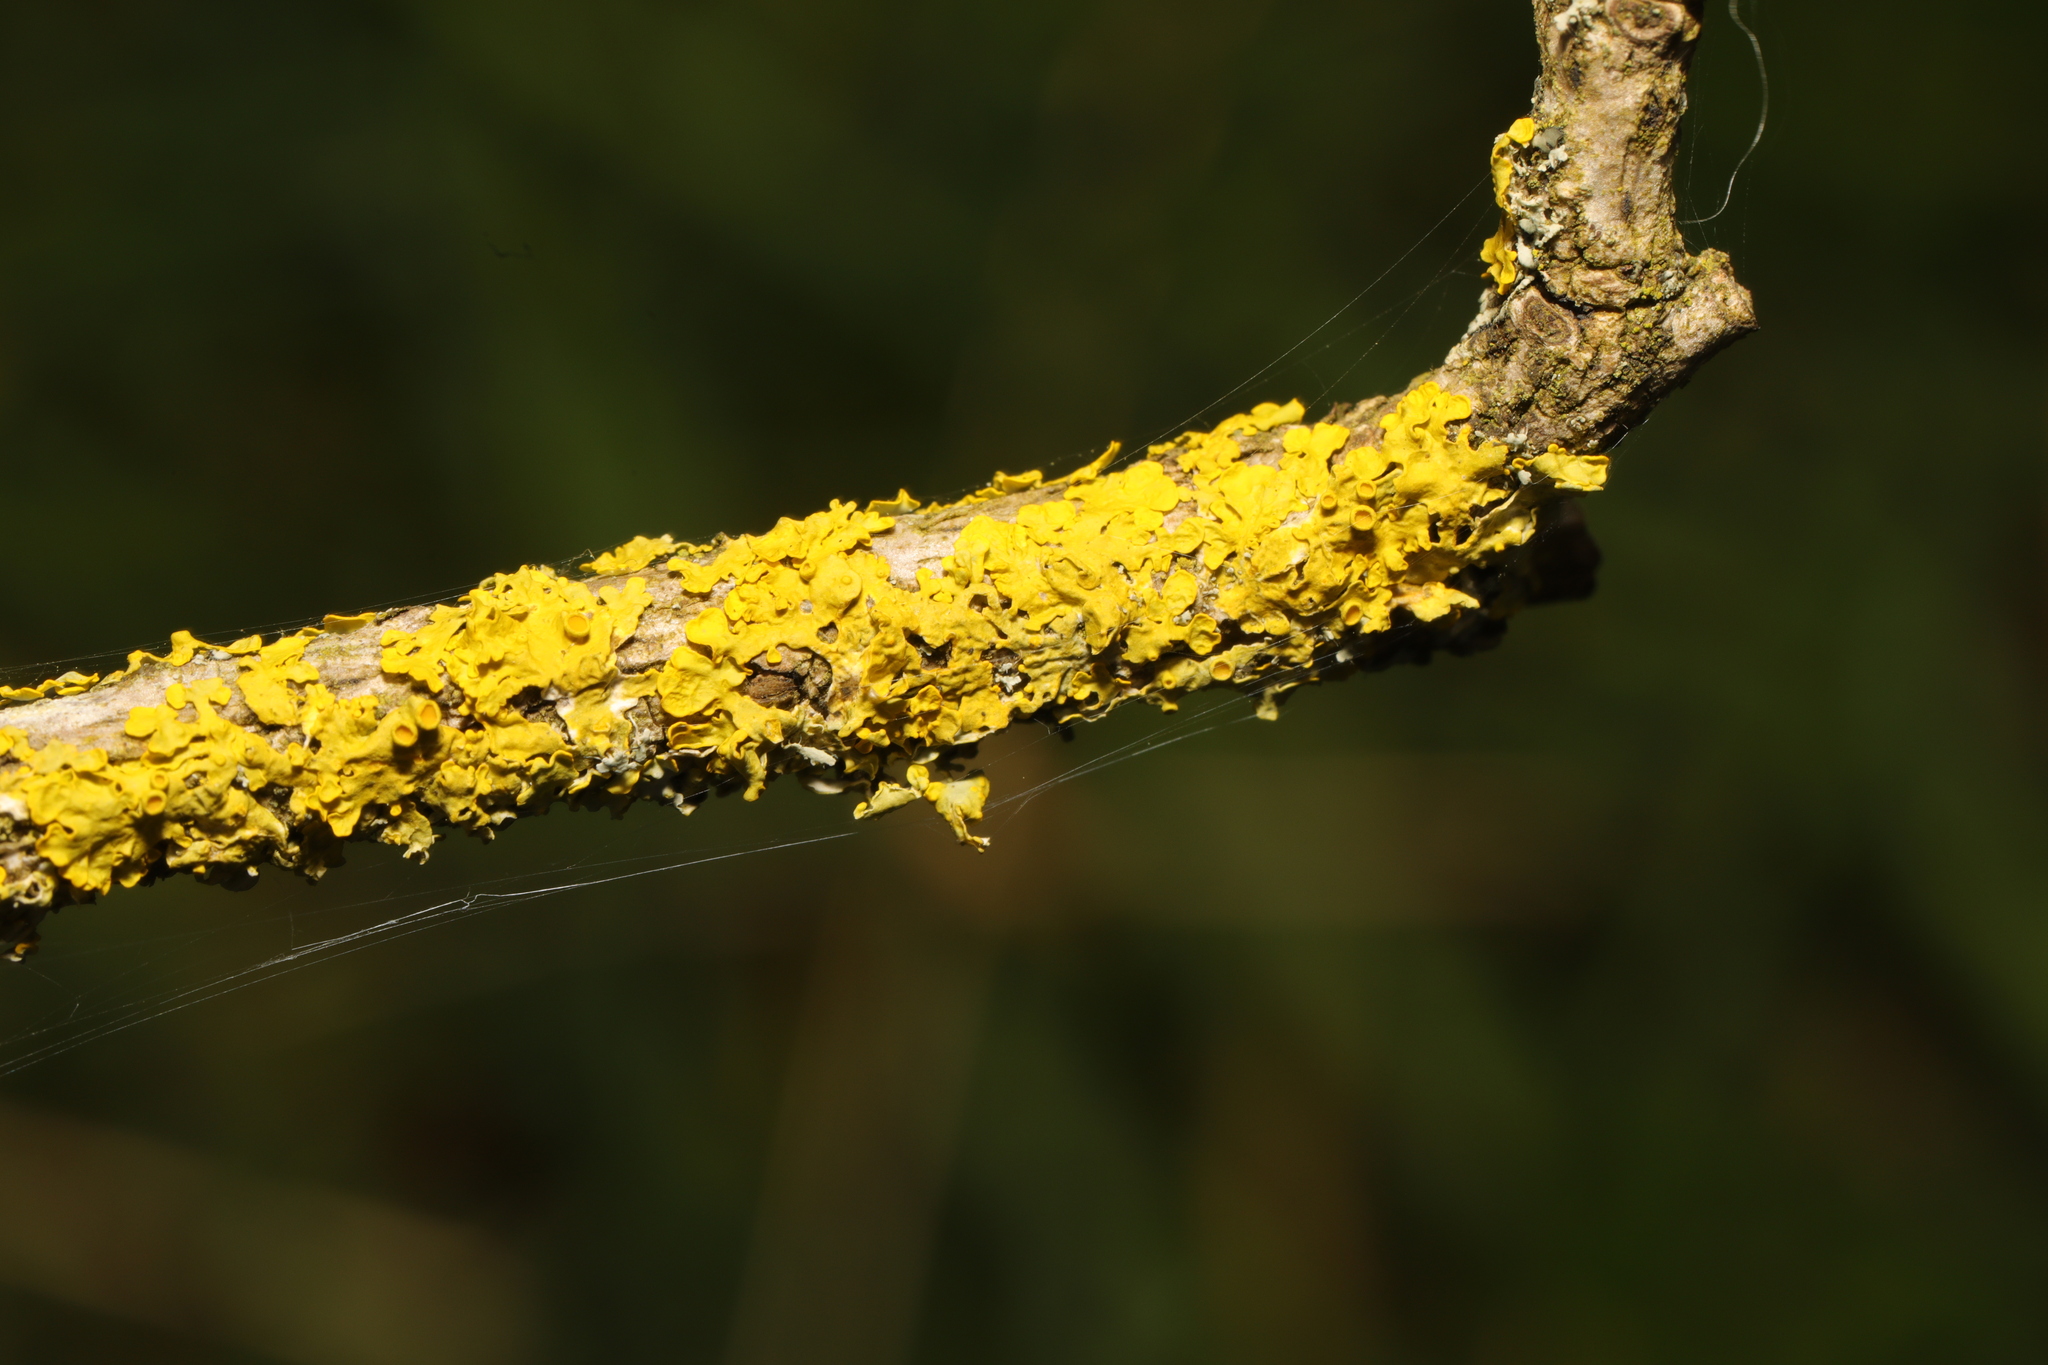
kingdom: Fungi
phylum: Ascomycota
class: Lecanoromycetes
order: Teloschistales
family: Teloschistaceae
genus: Xanthoria
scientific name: Xanthoria parietina
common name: Common orange lichen
